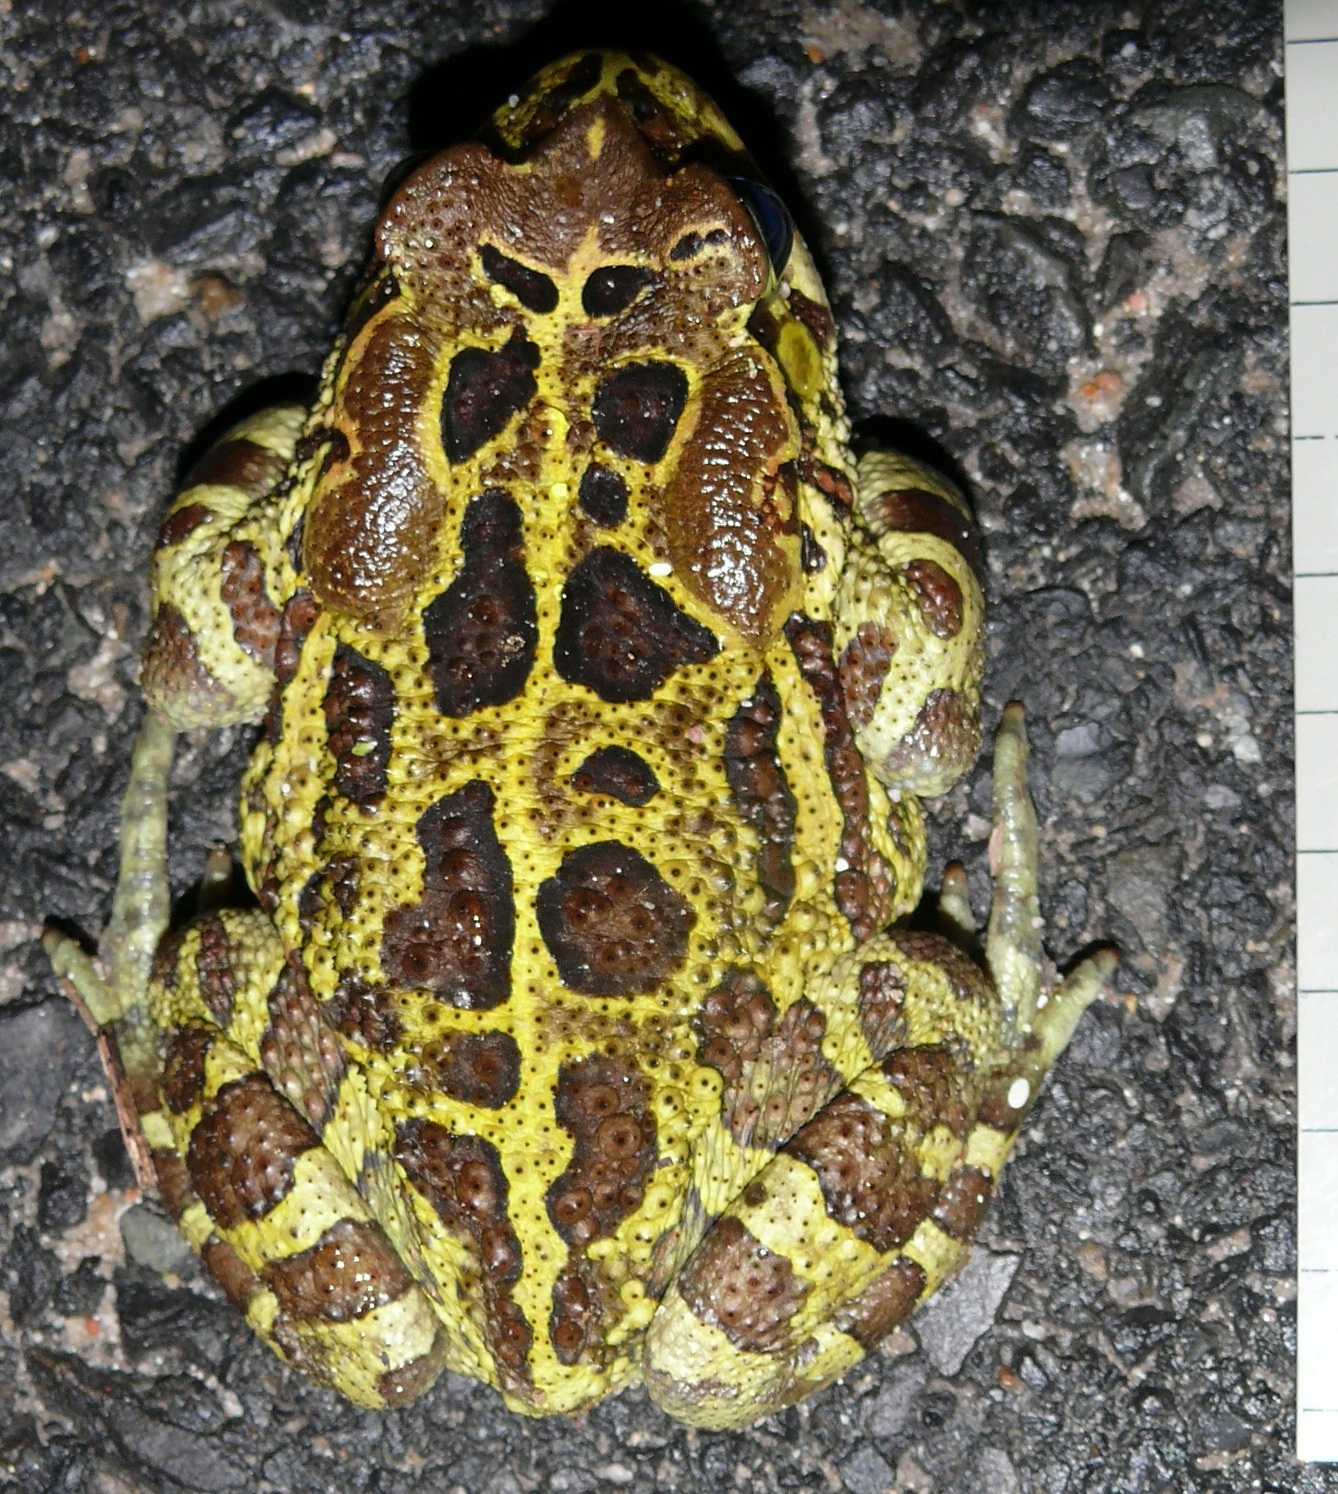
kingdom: Animalia
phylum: Chordata
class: Amphibia
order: Anura
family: Bufonidae
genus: Sclerophrys
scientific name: Sclerophrys pantherina
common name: Panther toad
